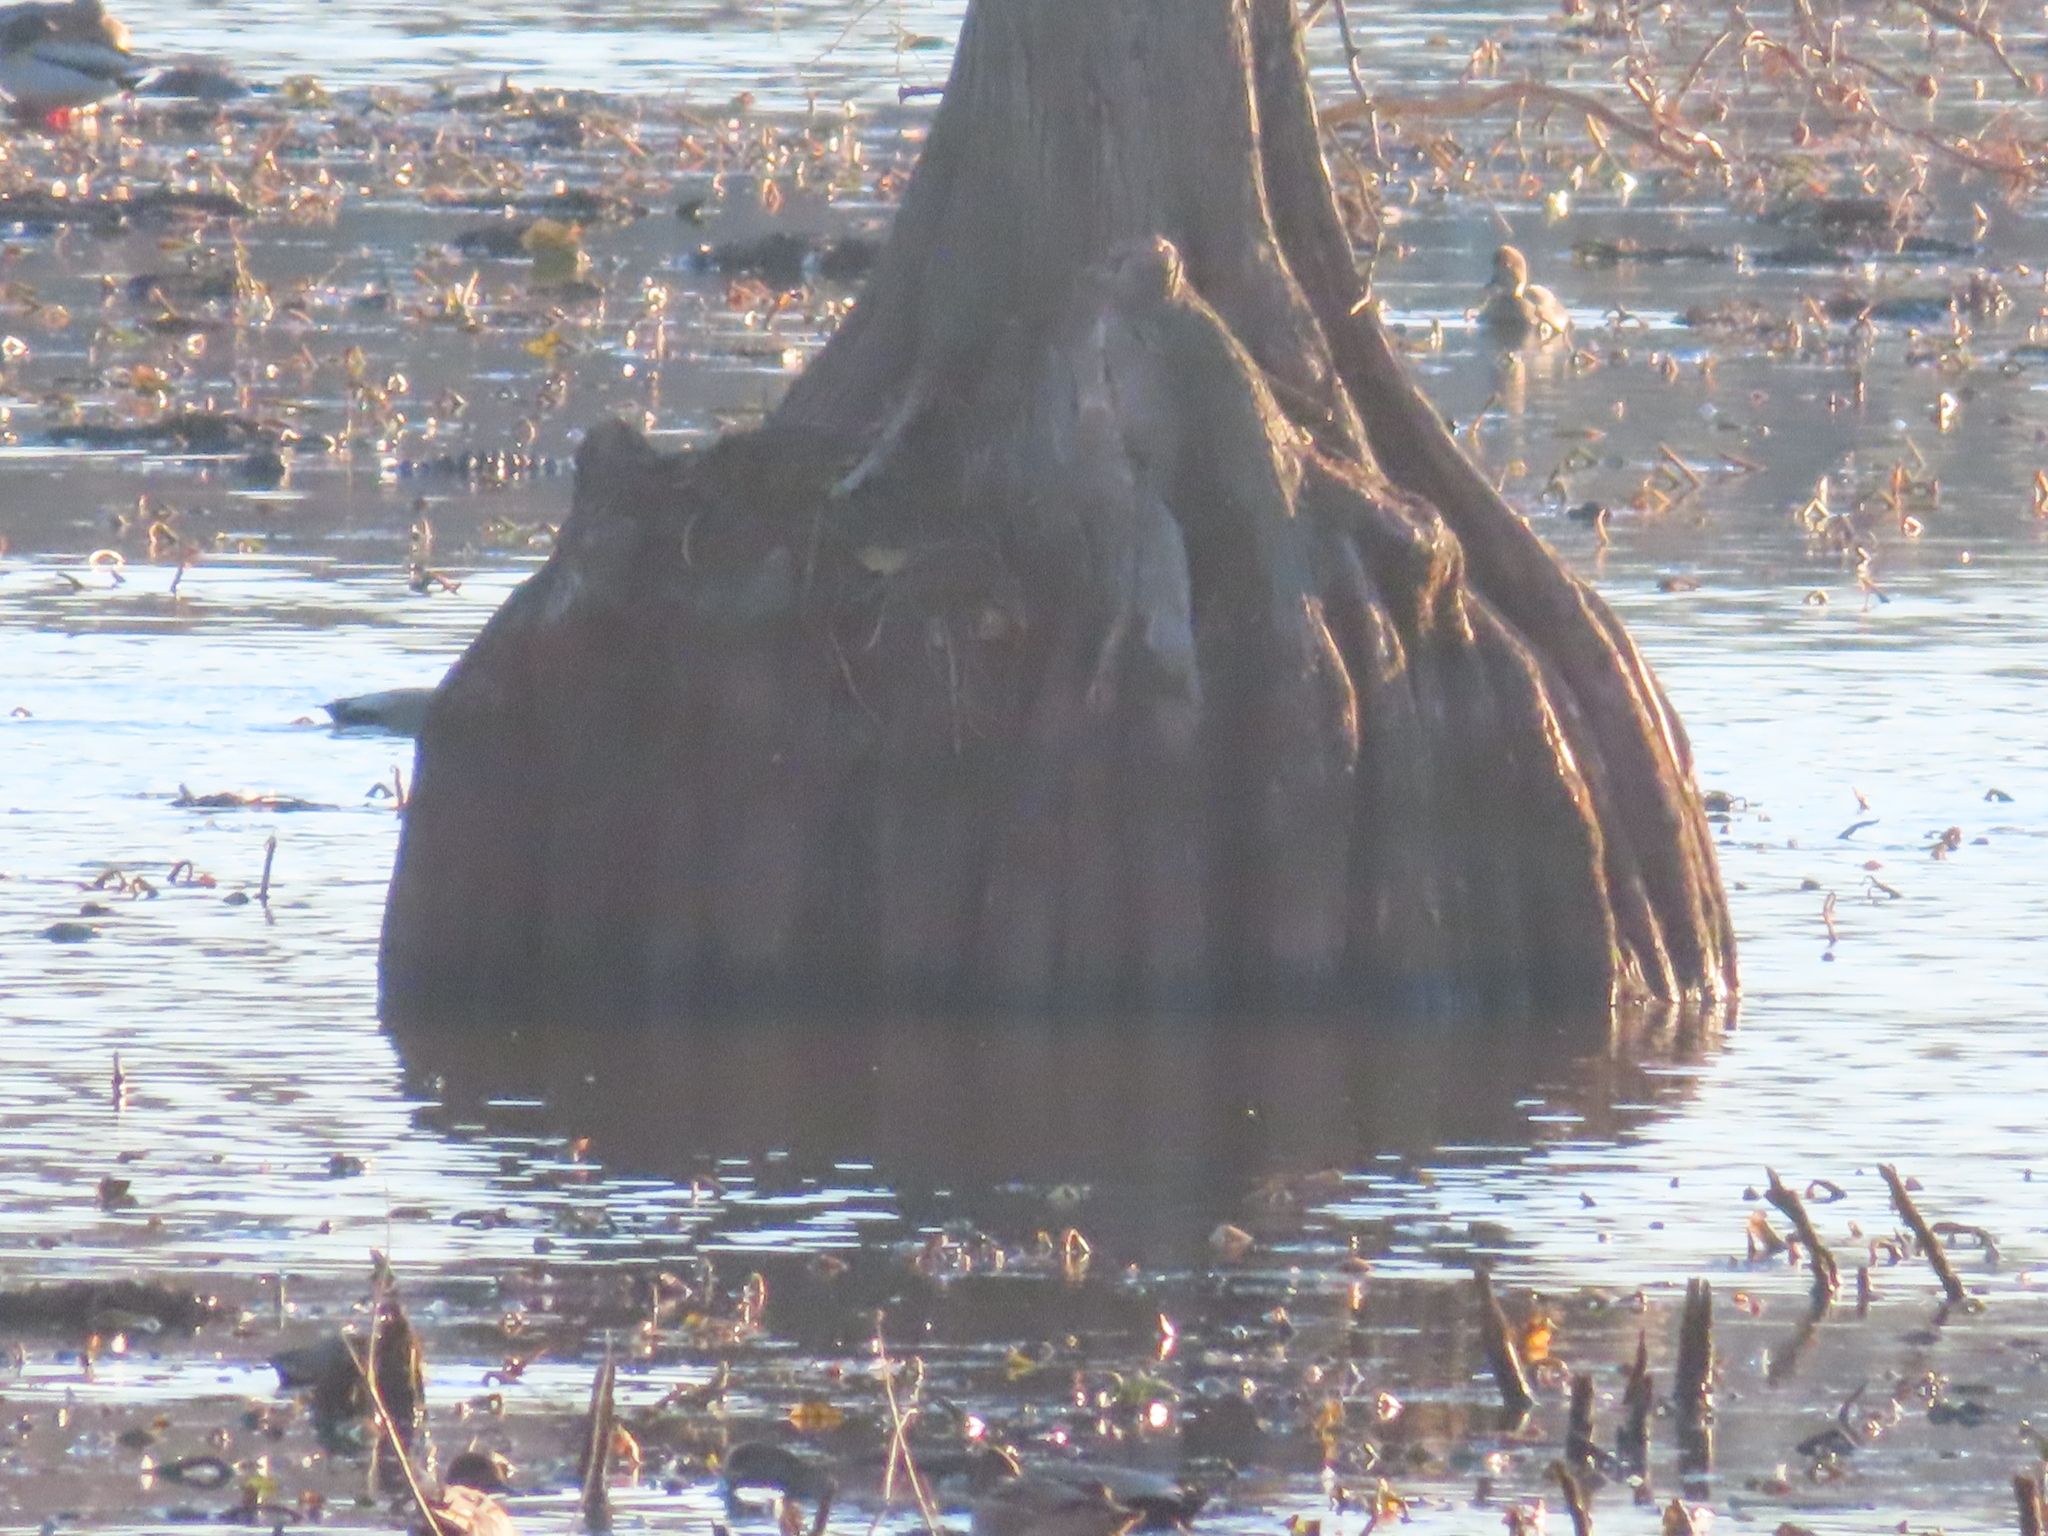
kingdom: Plantae
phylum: Tracheophyta
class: Pinopsida
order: Pinales
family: Cupressaceae
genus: Taxodium
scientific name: Taxodium distichum
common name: Bald cypress
